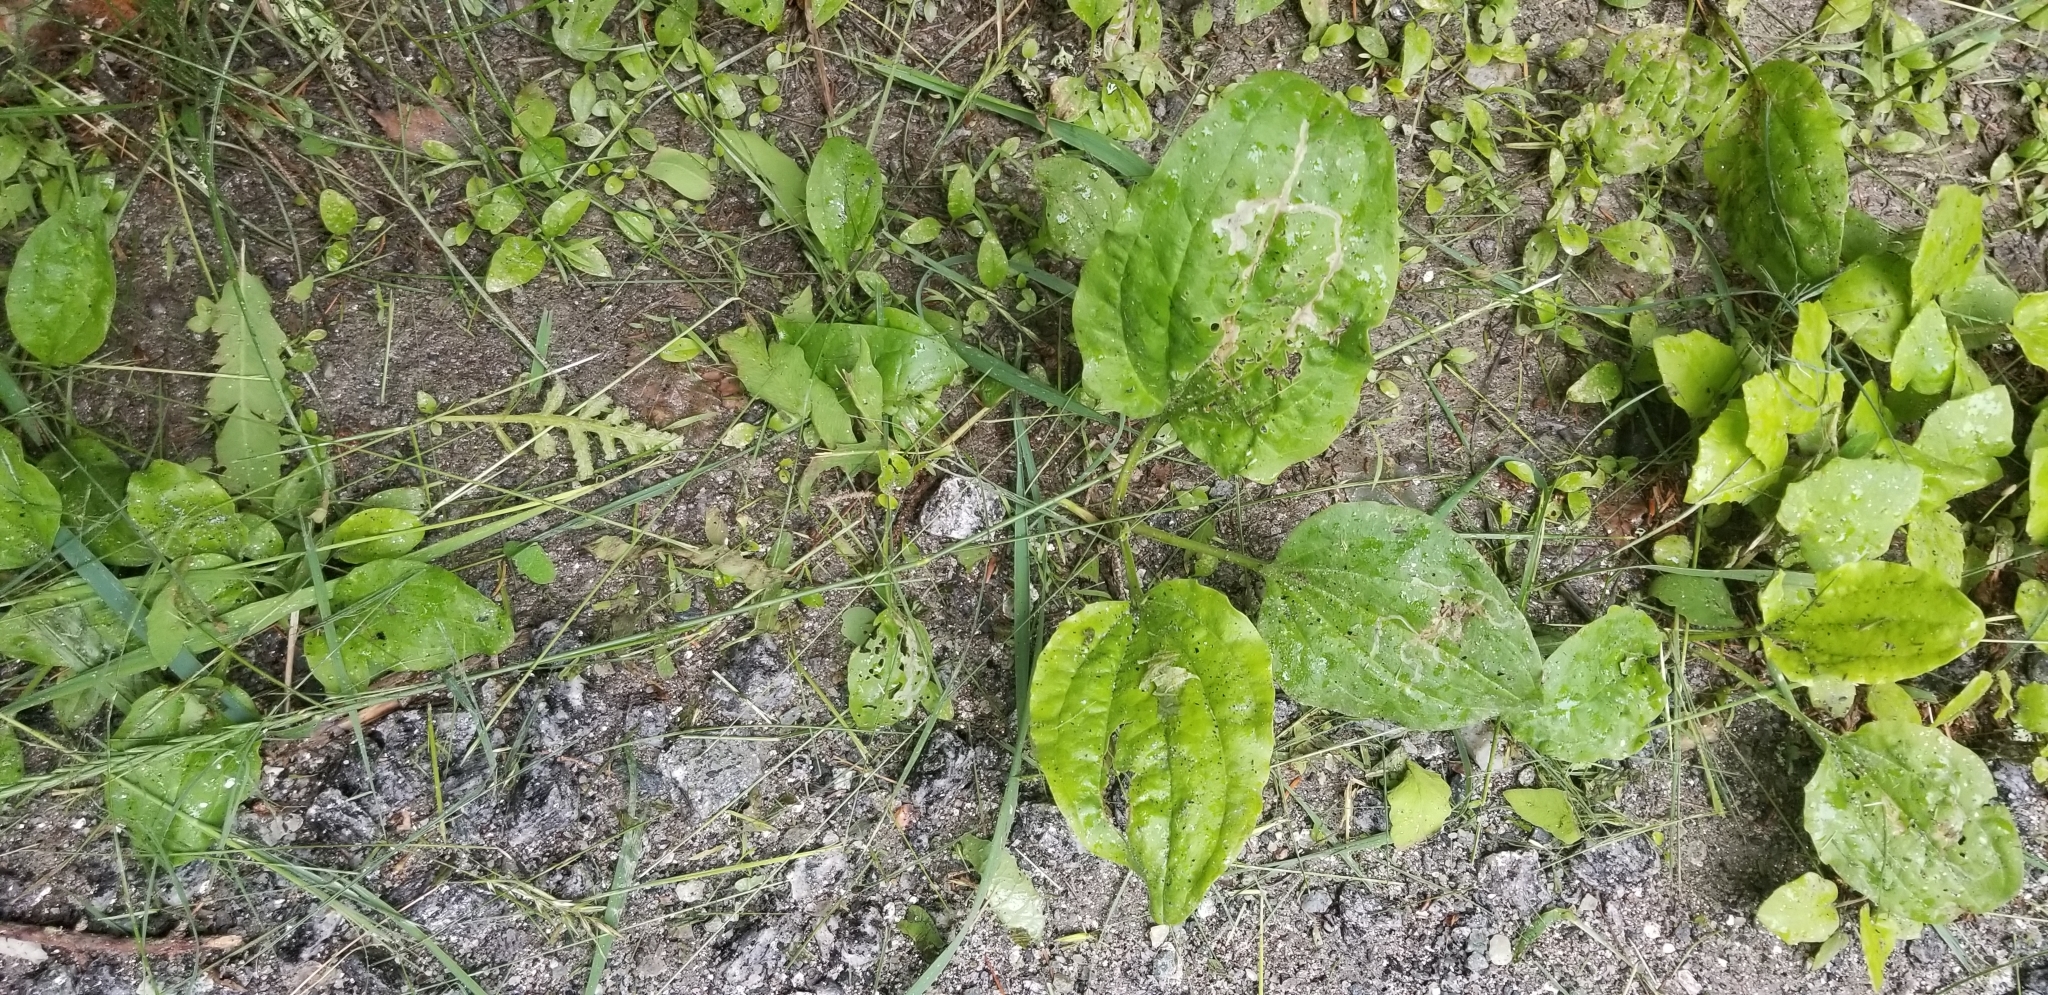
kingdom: Plantae
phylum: Tracheophyta
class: Magnoliopsida
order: Lamiales
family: Plantaginaceae
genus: Plantago
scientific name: Plantago major
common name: Common plantain
